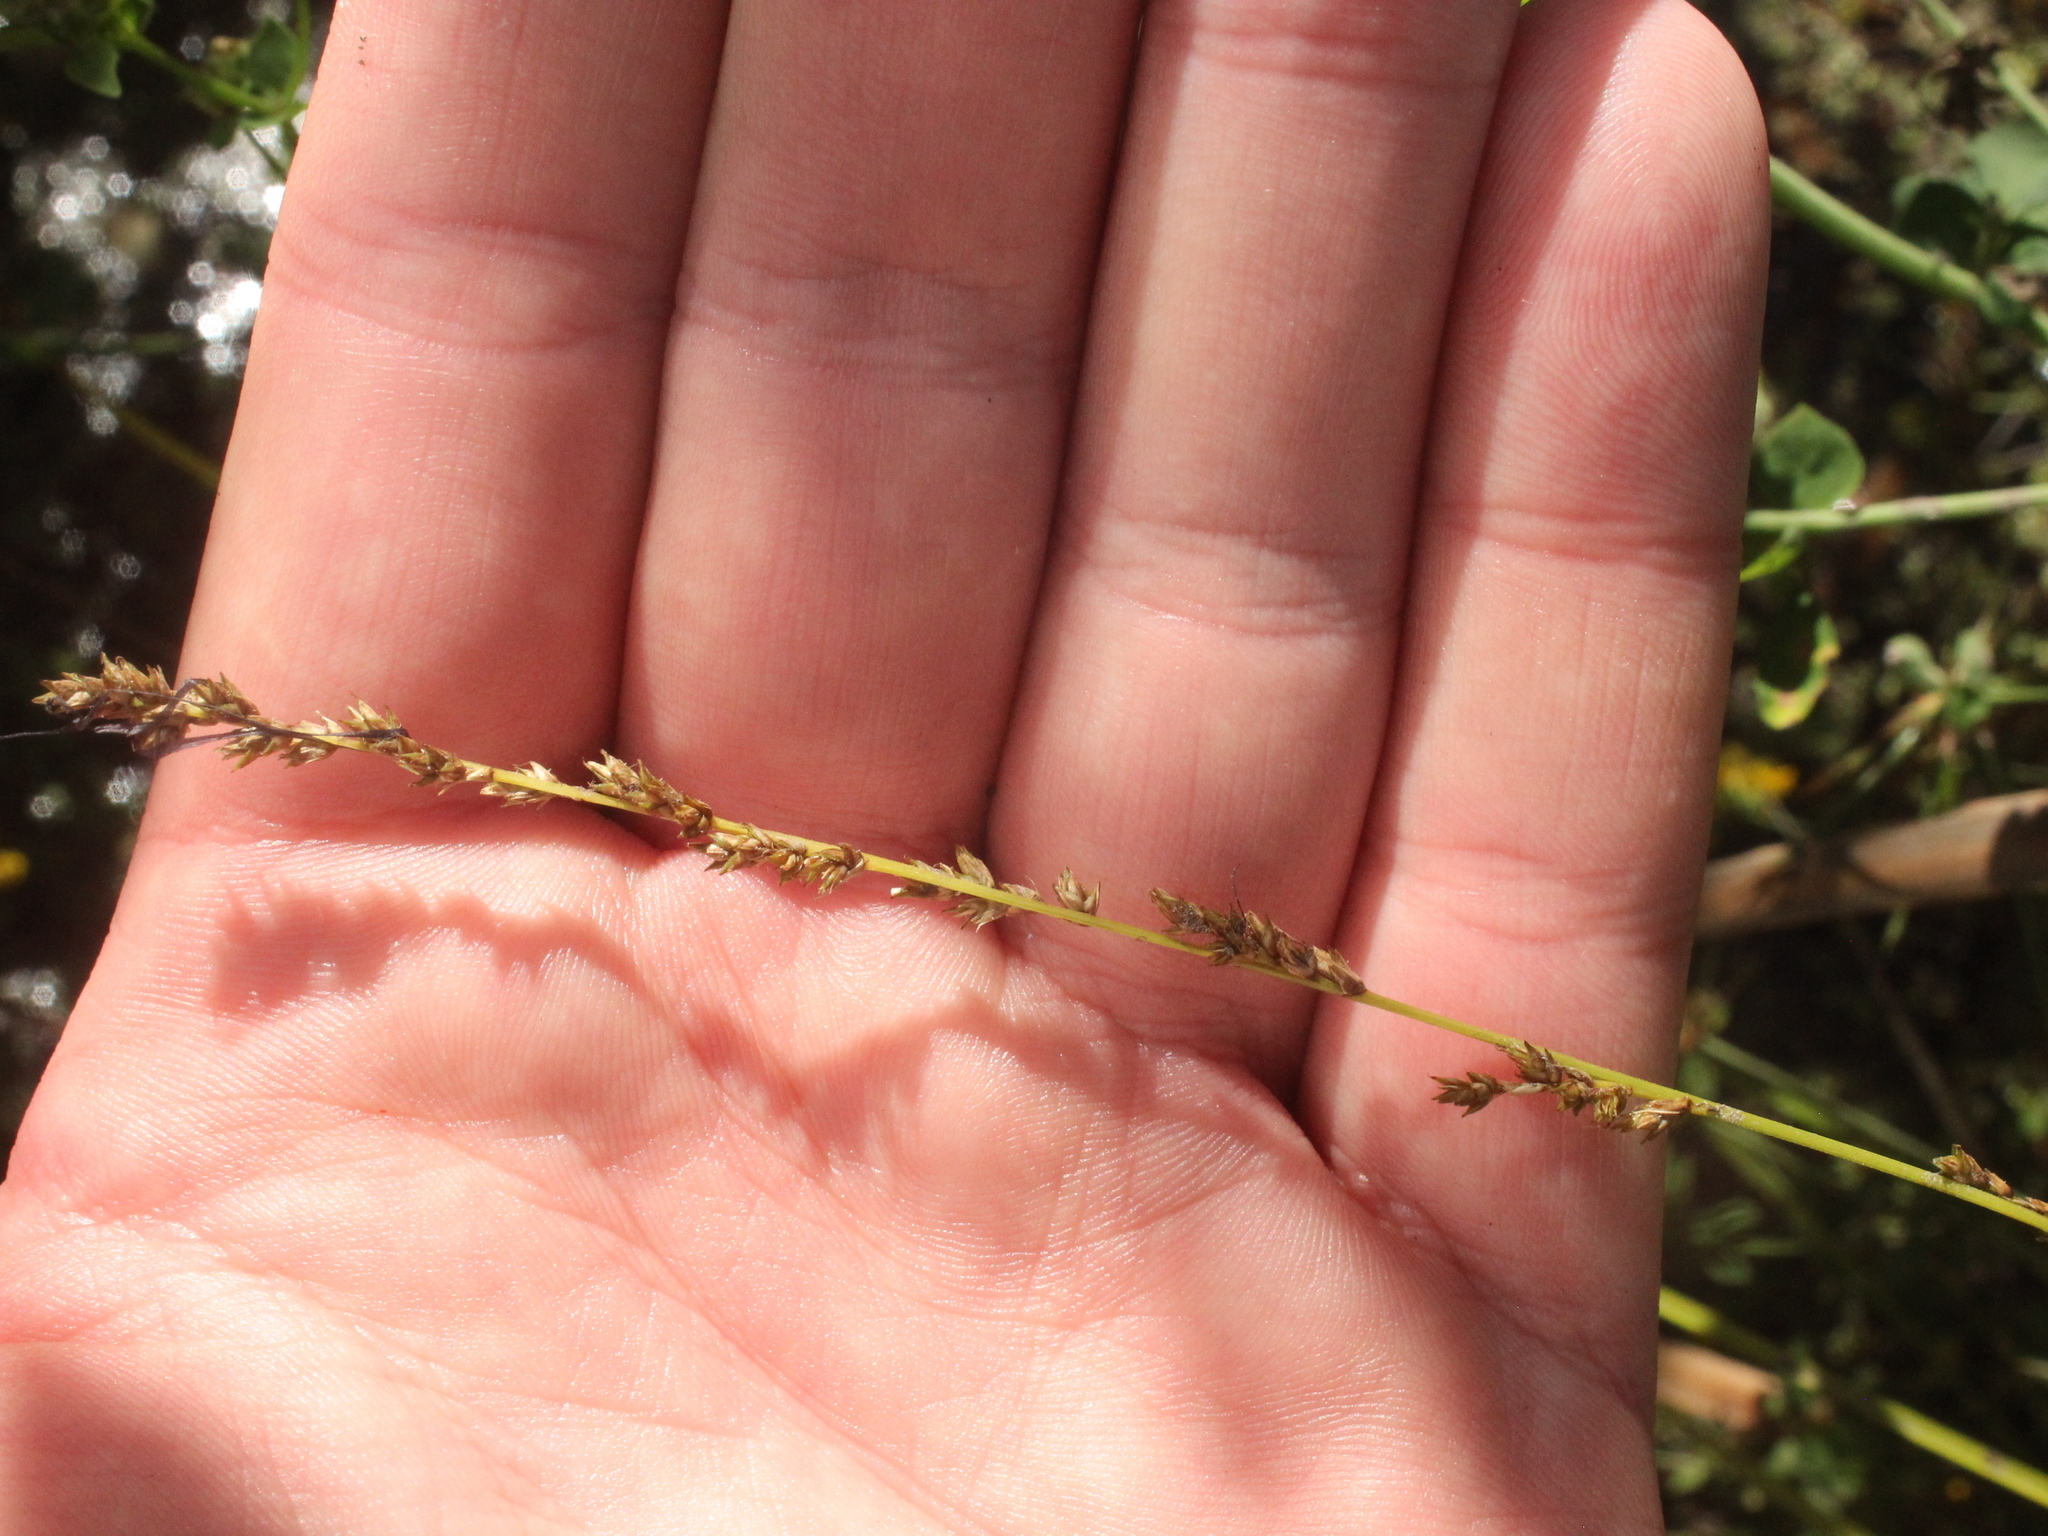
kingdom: Plantae
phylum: Tracheophyta
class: Liliopsida
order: Poales
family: Cyperaceae
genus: Carex
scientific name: Carex secta
